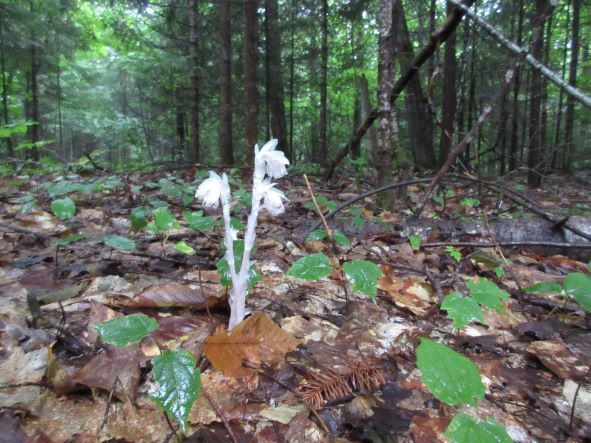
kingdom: Plantae
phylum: Tracheophyta
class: Magnoliopsida
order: Ericales
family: Ericaceae
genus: Monotropa
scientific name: Monotropa uniflora
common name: Convulsion root
